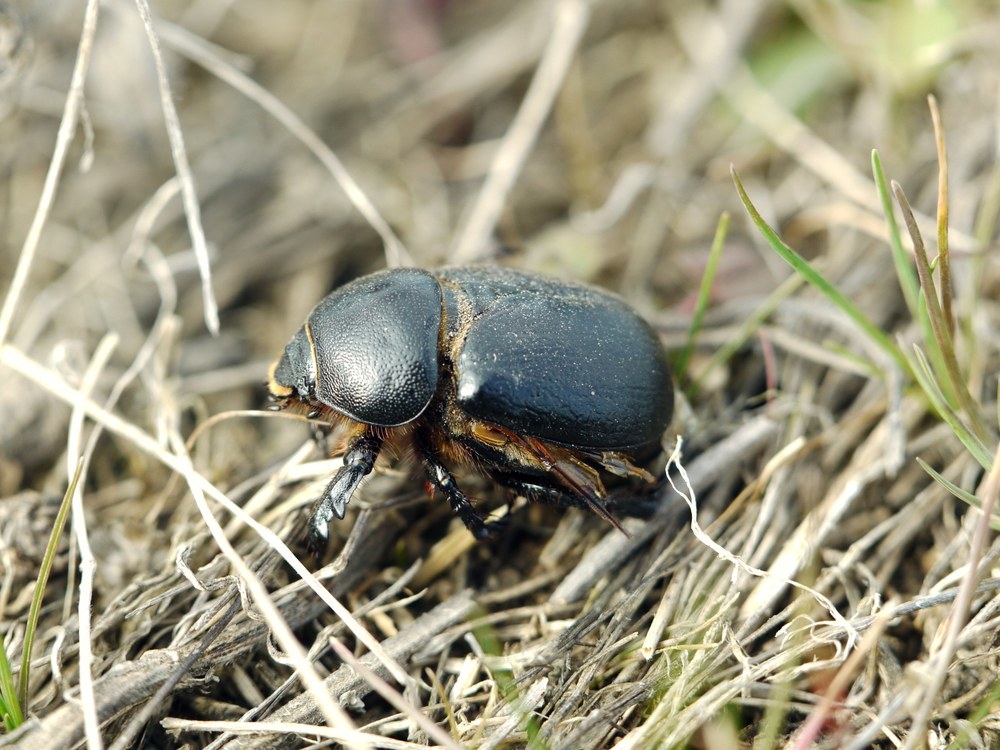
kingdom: Animalia
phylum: Arthropoda
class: Insecta
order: Coleoptera
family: Scarabaeidae
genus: Pentodon
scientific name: Pentodon idiota
